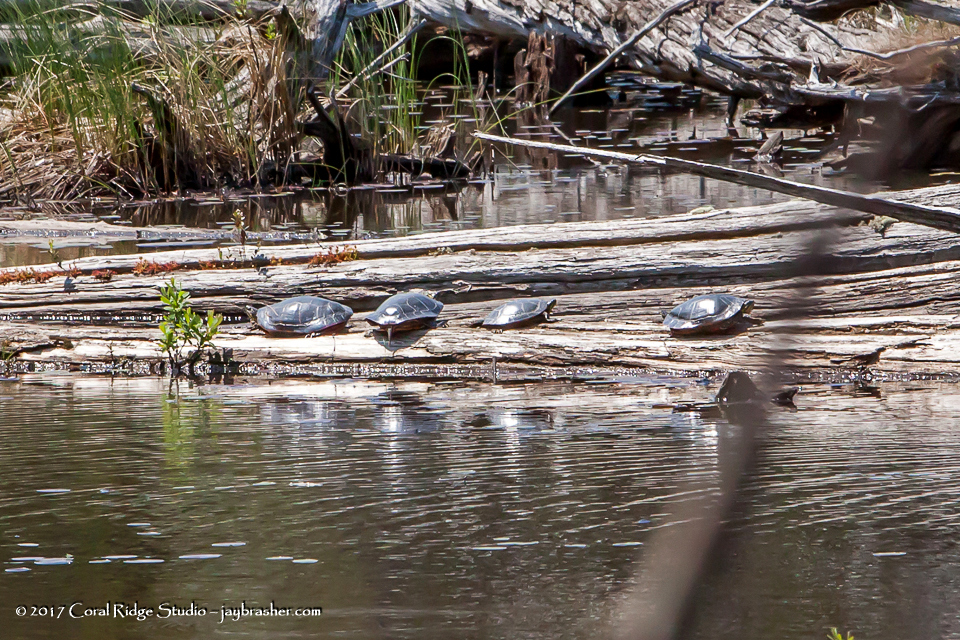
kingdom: Animalia
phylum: Chordata
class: Testudines
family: Emydidae
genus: Chrysemys
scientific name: Chrysemys picta
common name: Painted turtle
